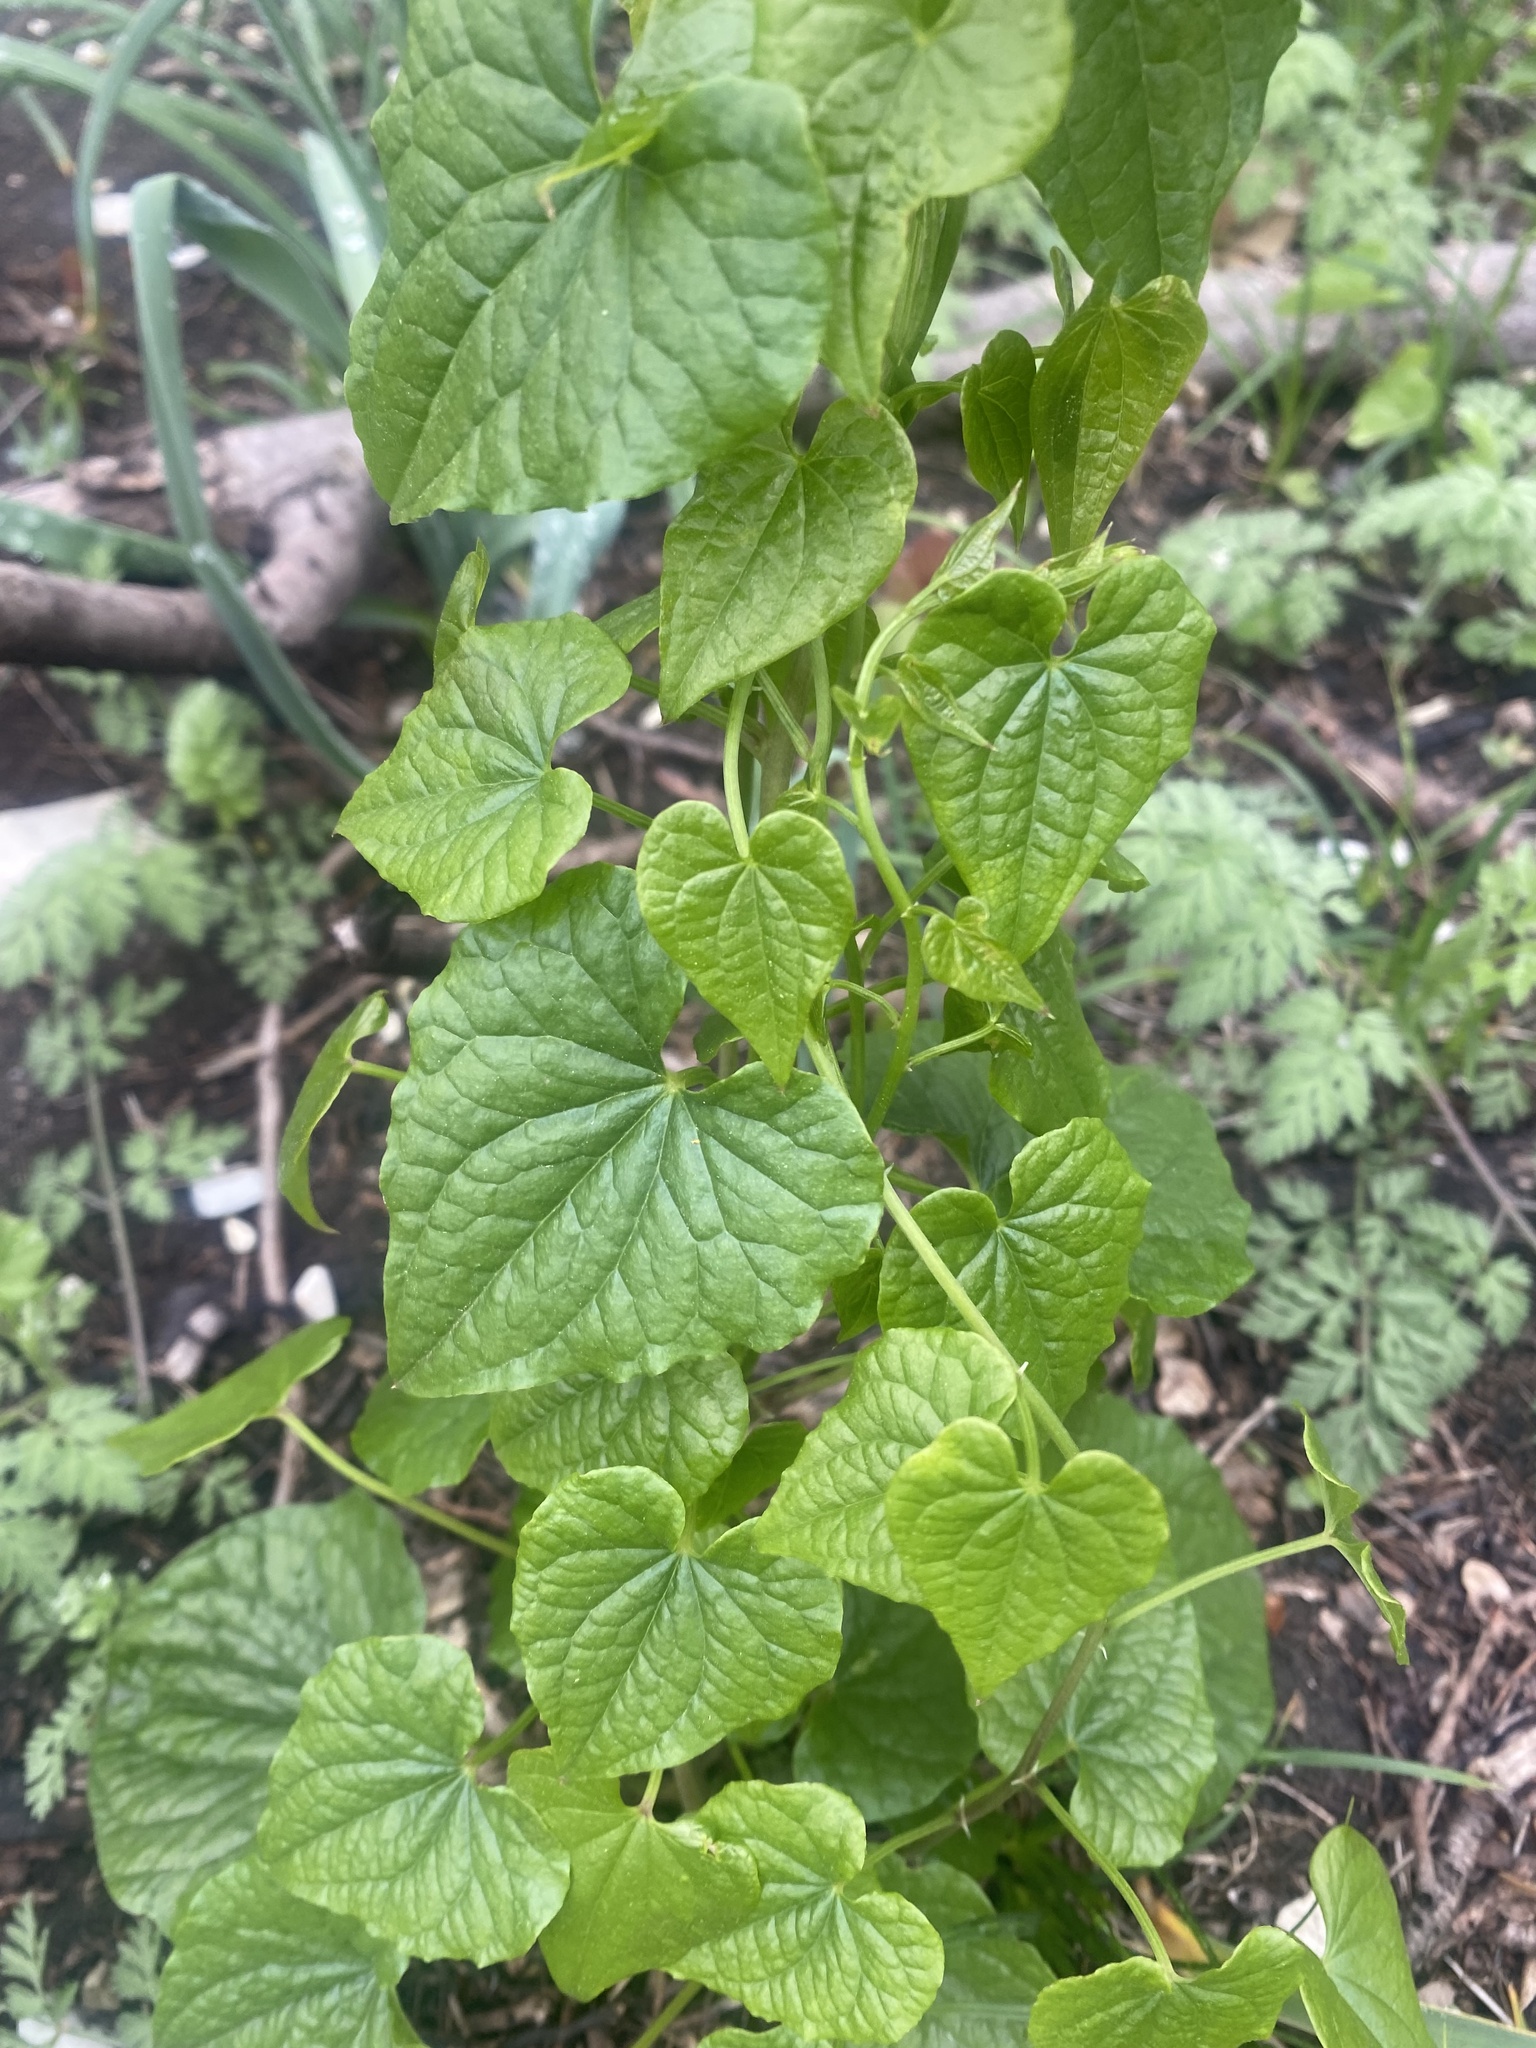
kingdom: Plantae
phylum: Tracheophyta
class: Liliopsida
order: Dioscoreales
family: Dioscoreaceae
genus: Dioscorea
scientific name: Dioscorea communis
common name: Black-bindweed
